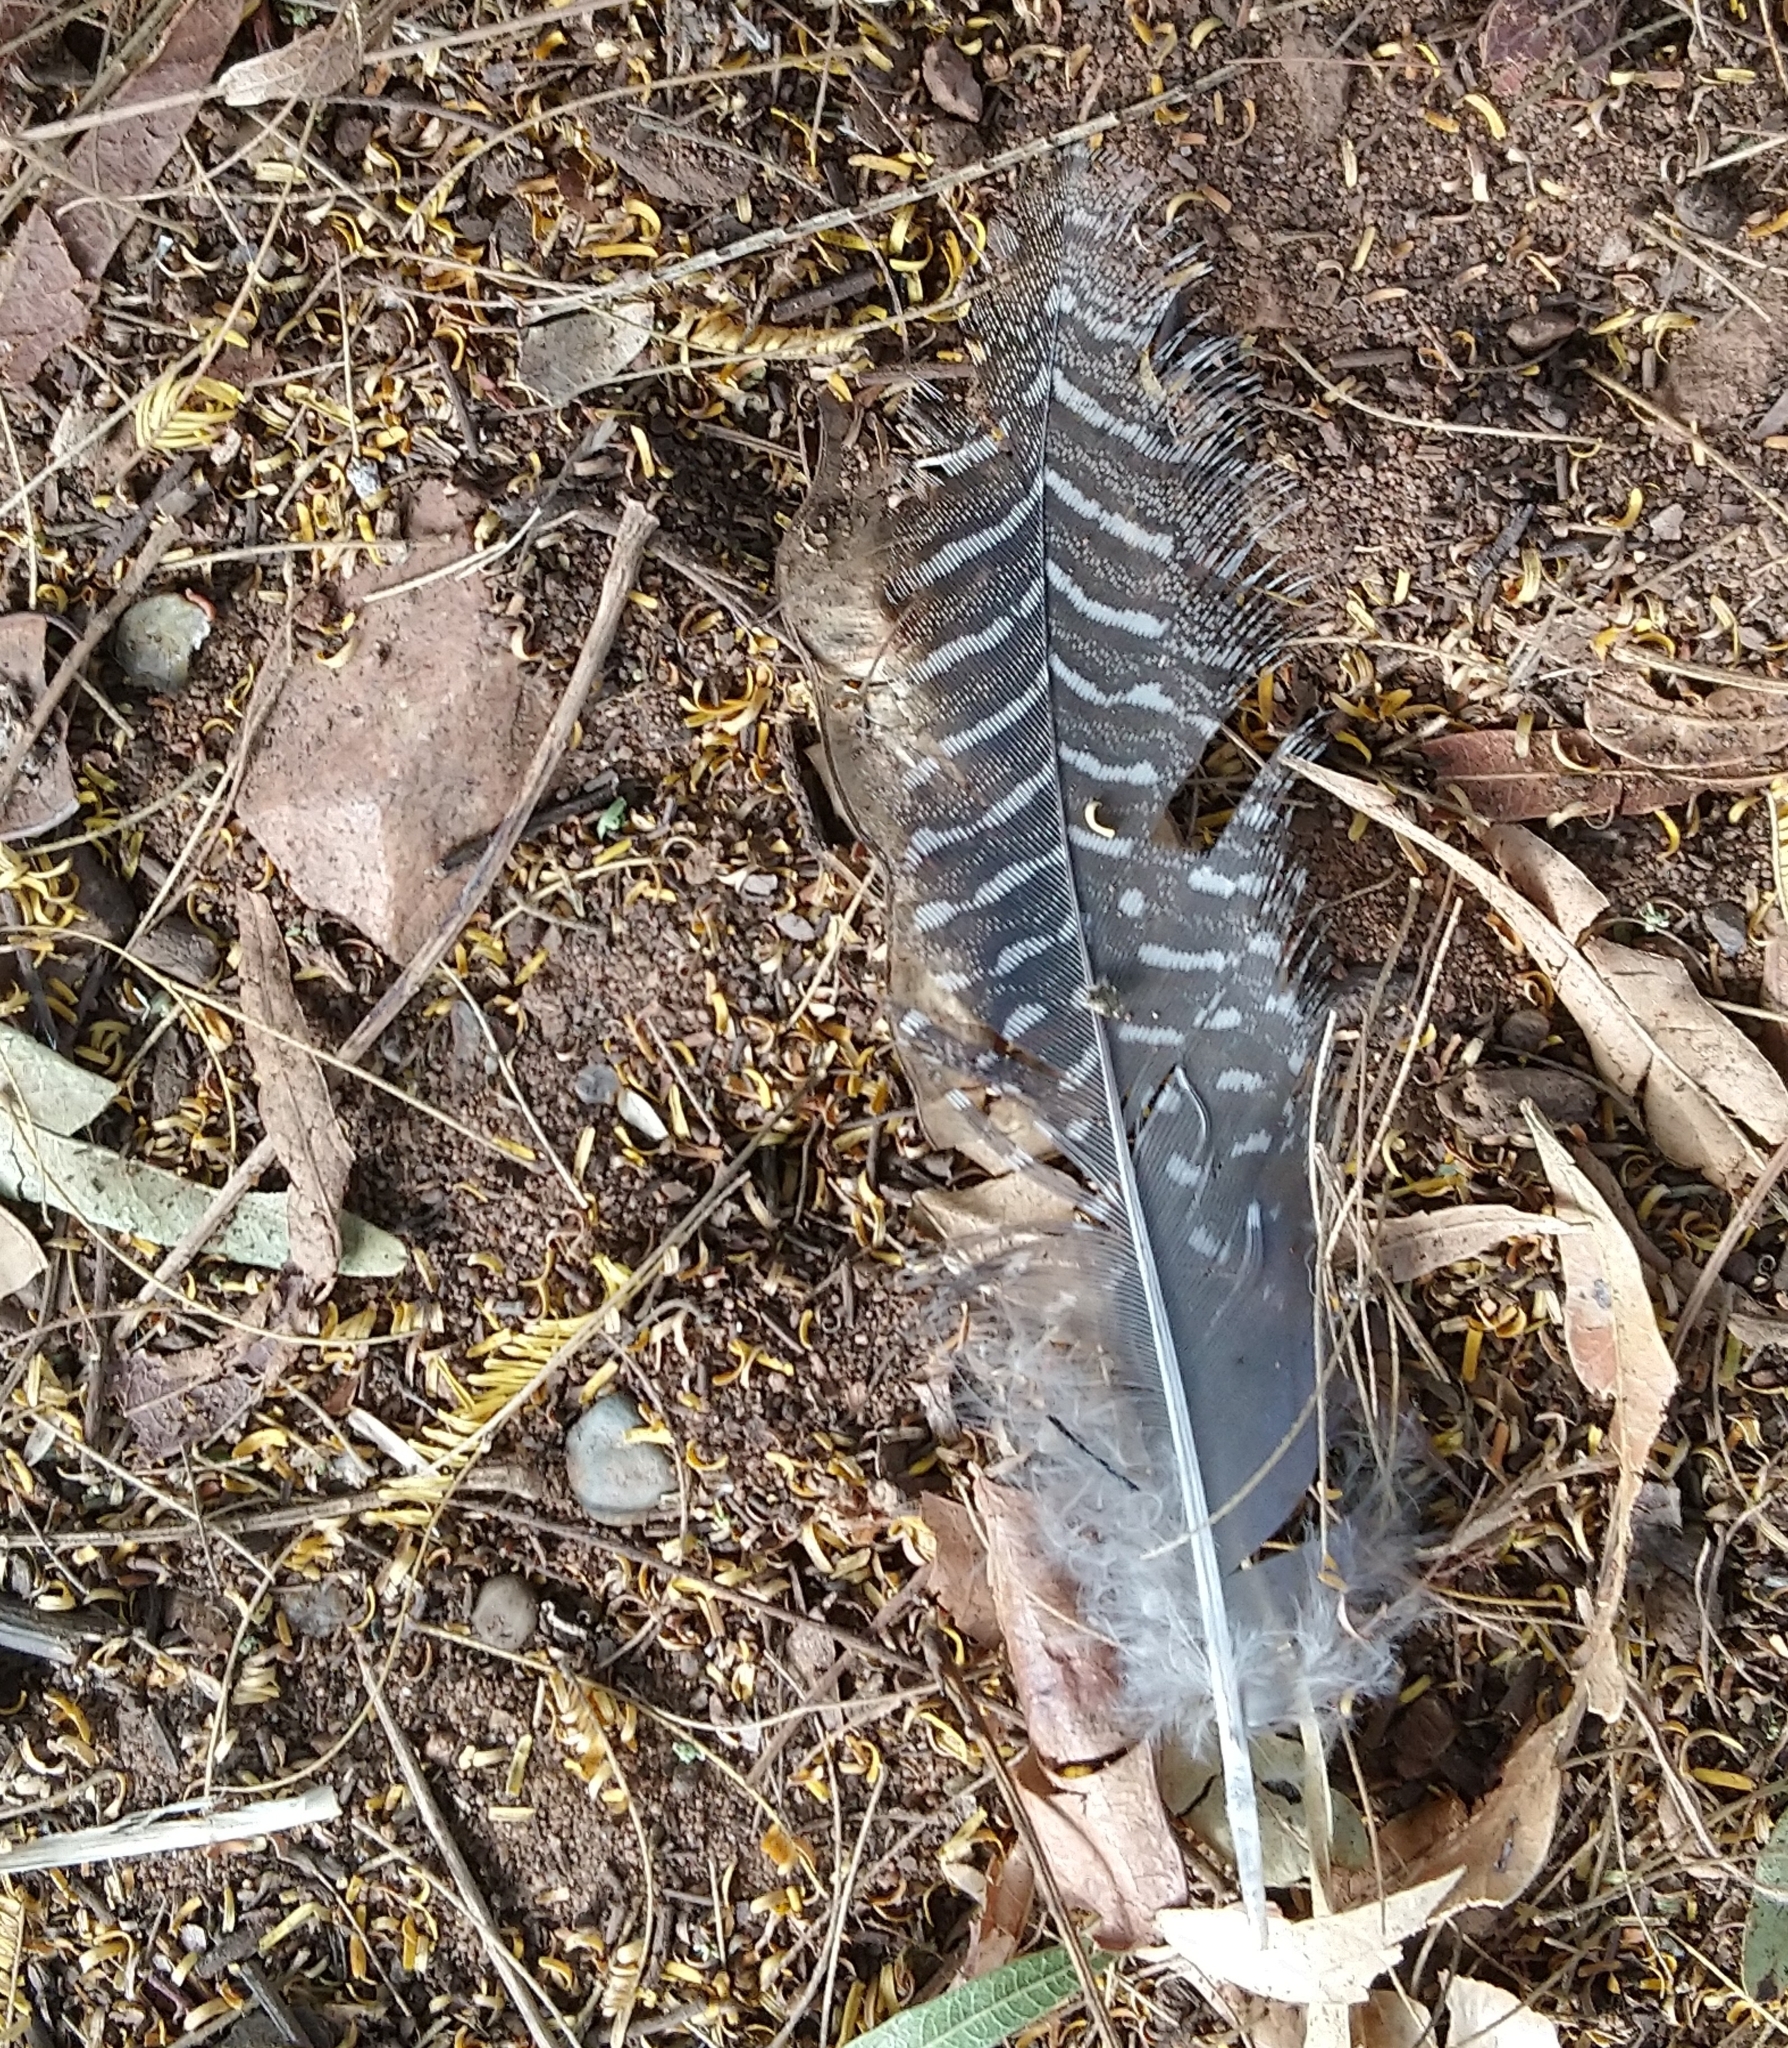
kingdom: Animalia
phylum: Chordata
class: Aves
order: Galliformes
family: Numididae
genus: Numida
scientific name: Numida meleagris
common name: Helmeted guineafowl
